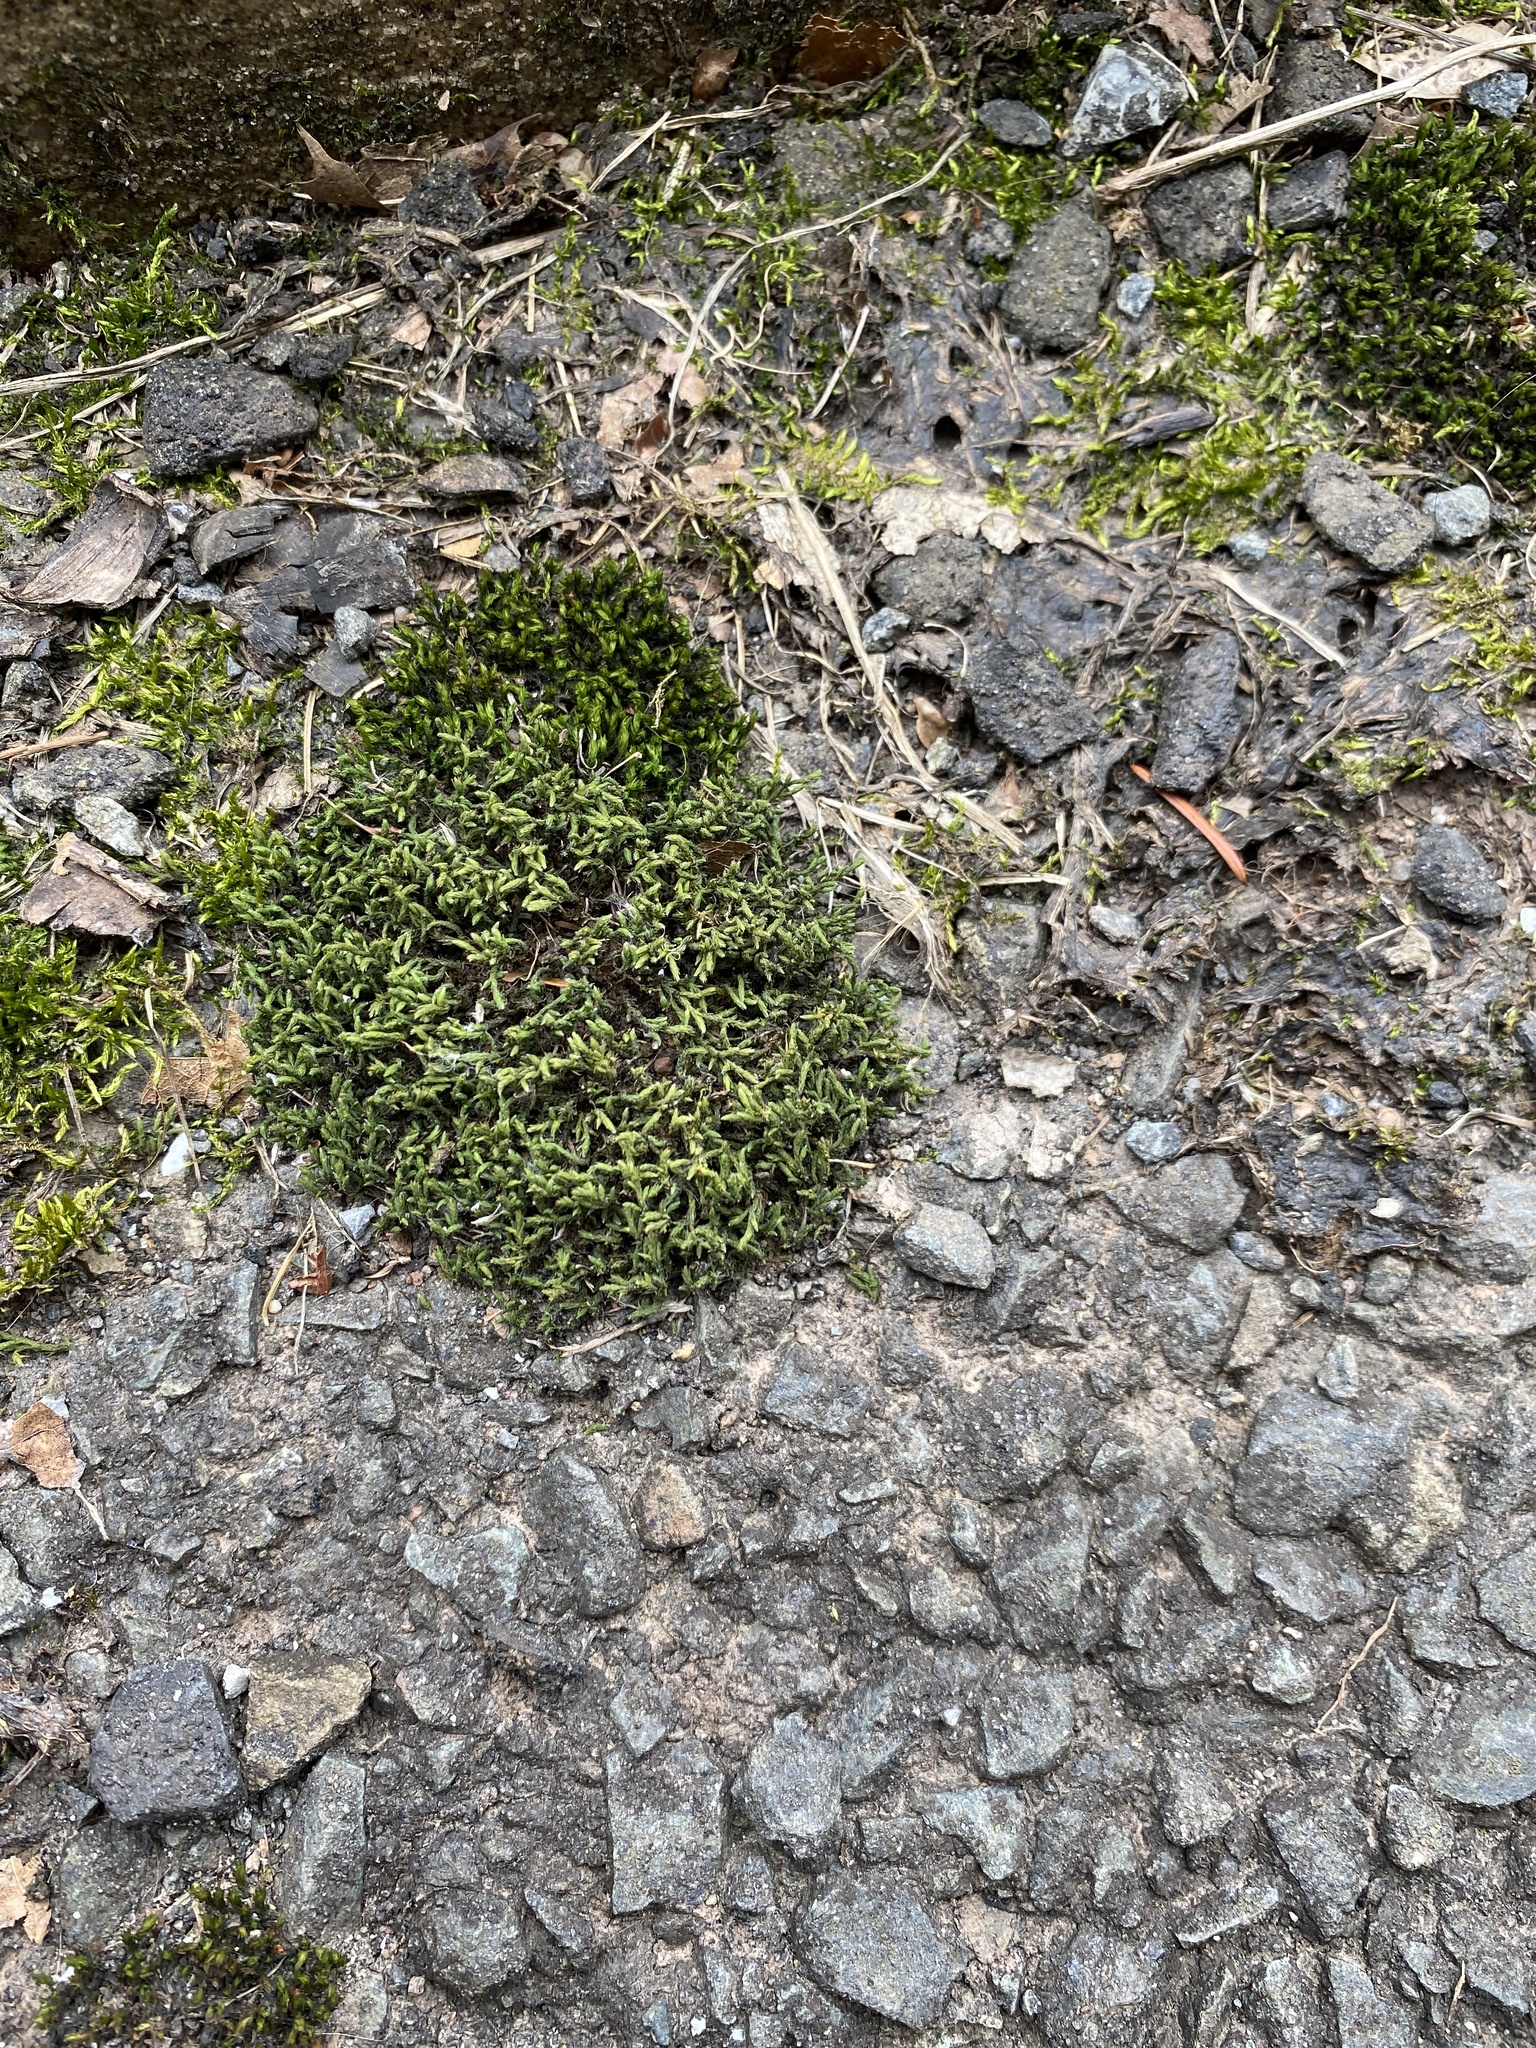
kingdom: Plantae
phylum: Bryophyta
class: Bryopsida
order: Hedwigiales
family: Hedwigiaceae
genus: Hedwigia
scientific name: Hedwigia ciliata
